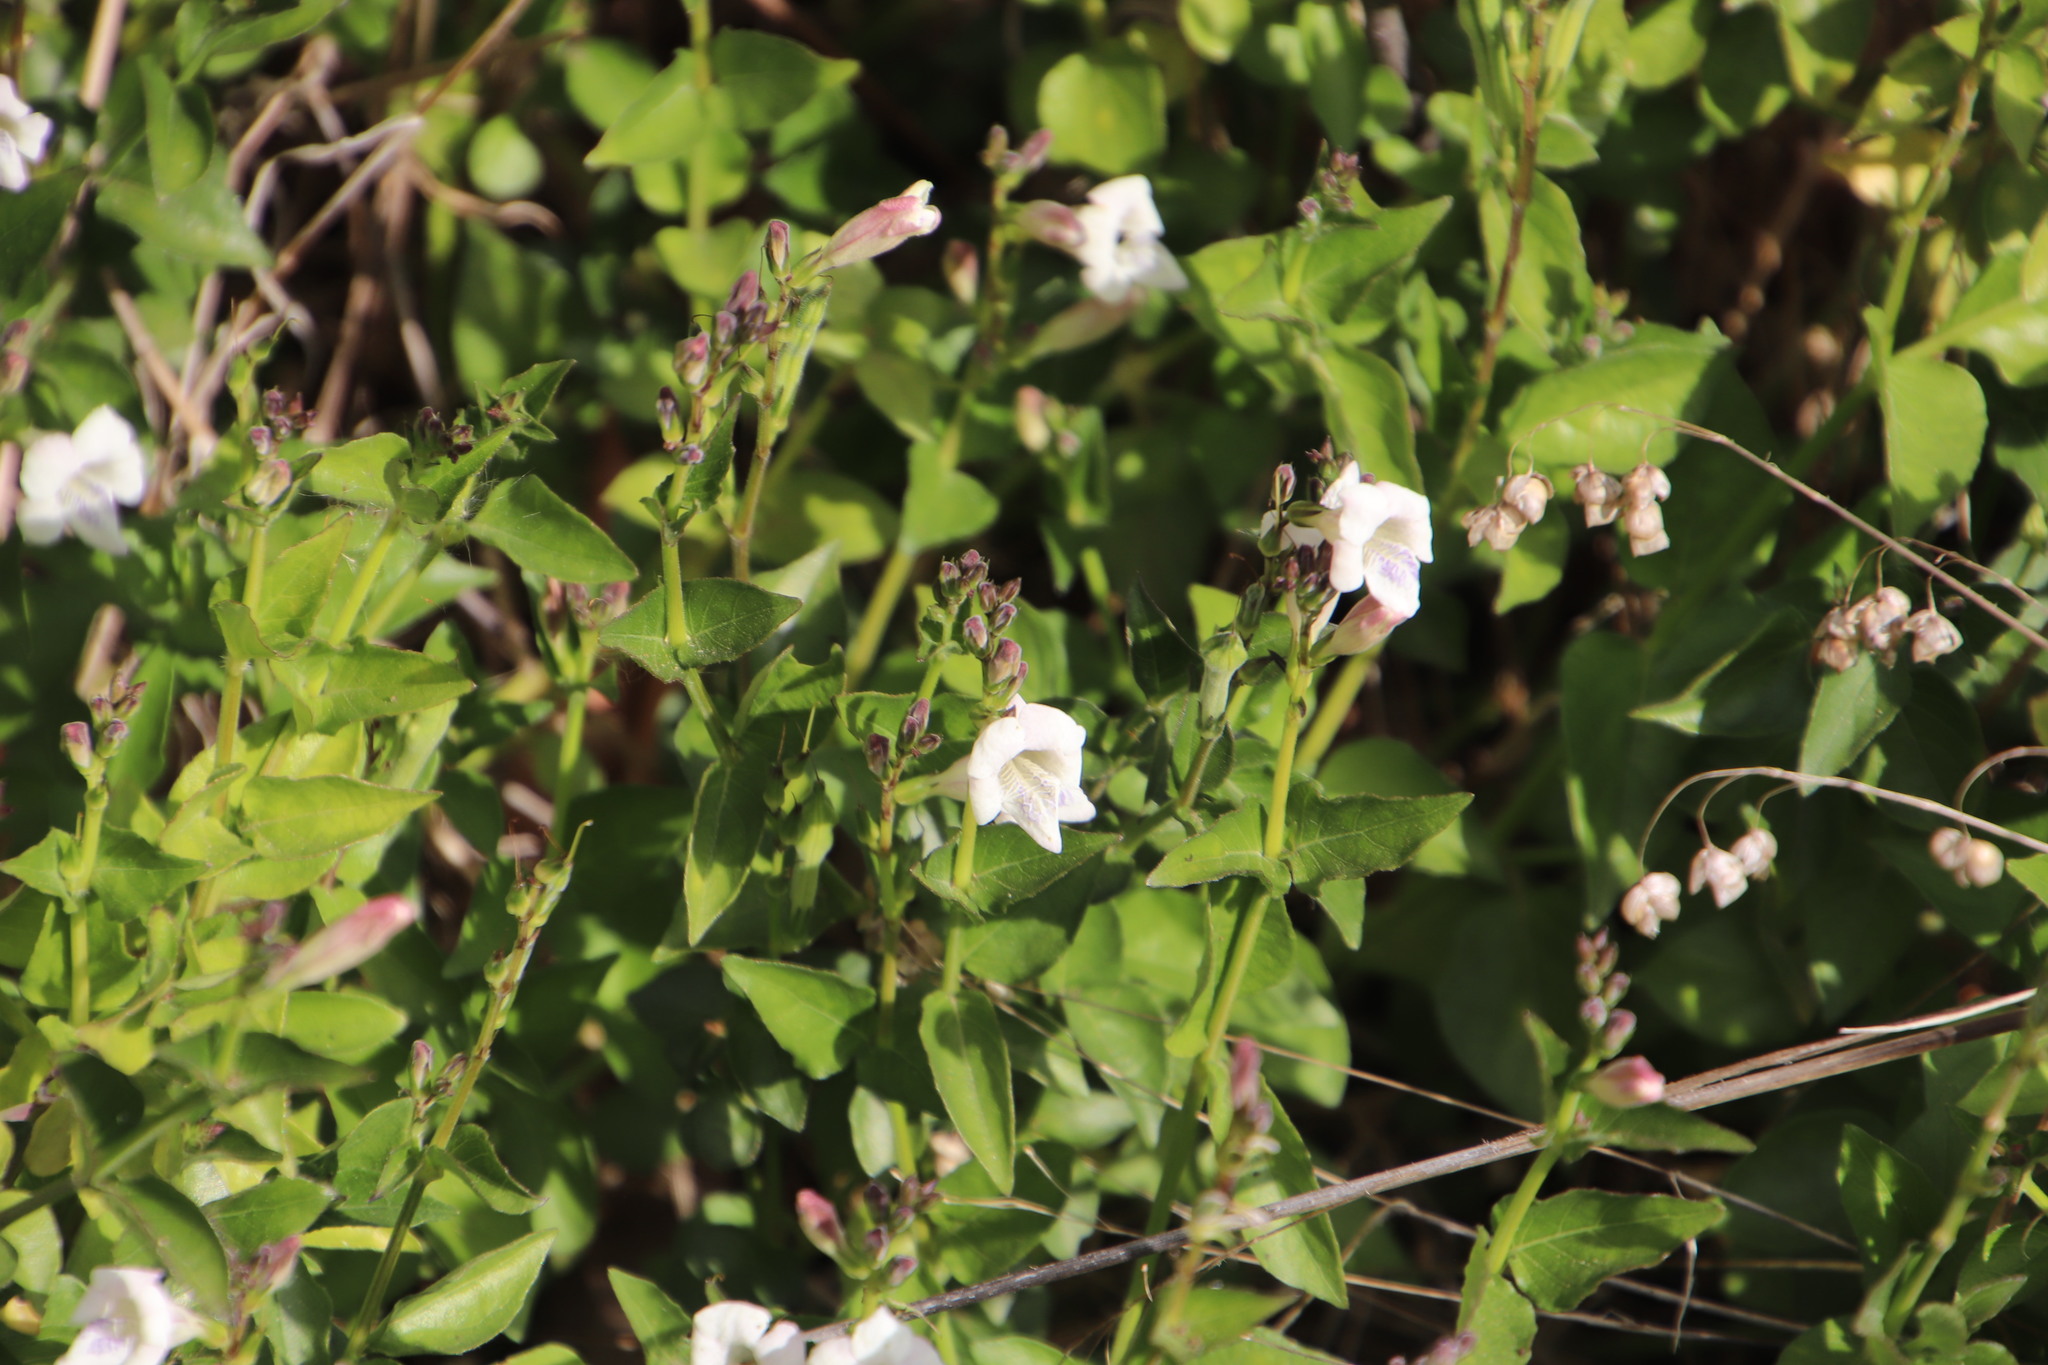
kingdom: Plantae
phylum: Tracheophyta
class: Magnoliopsida
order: Lamiales
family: Acanthaceae
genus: Asystasia
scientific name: Asystasia intrusa
